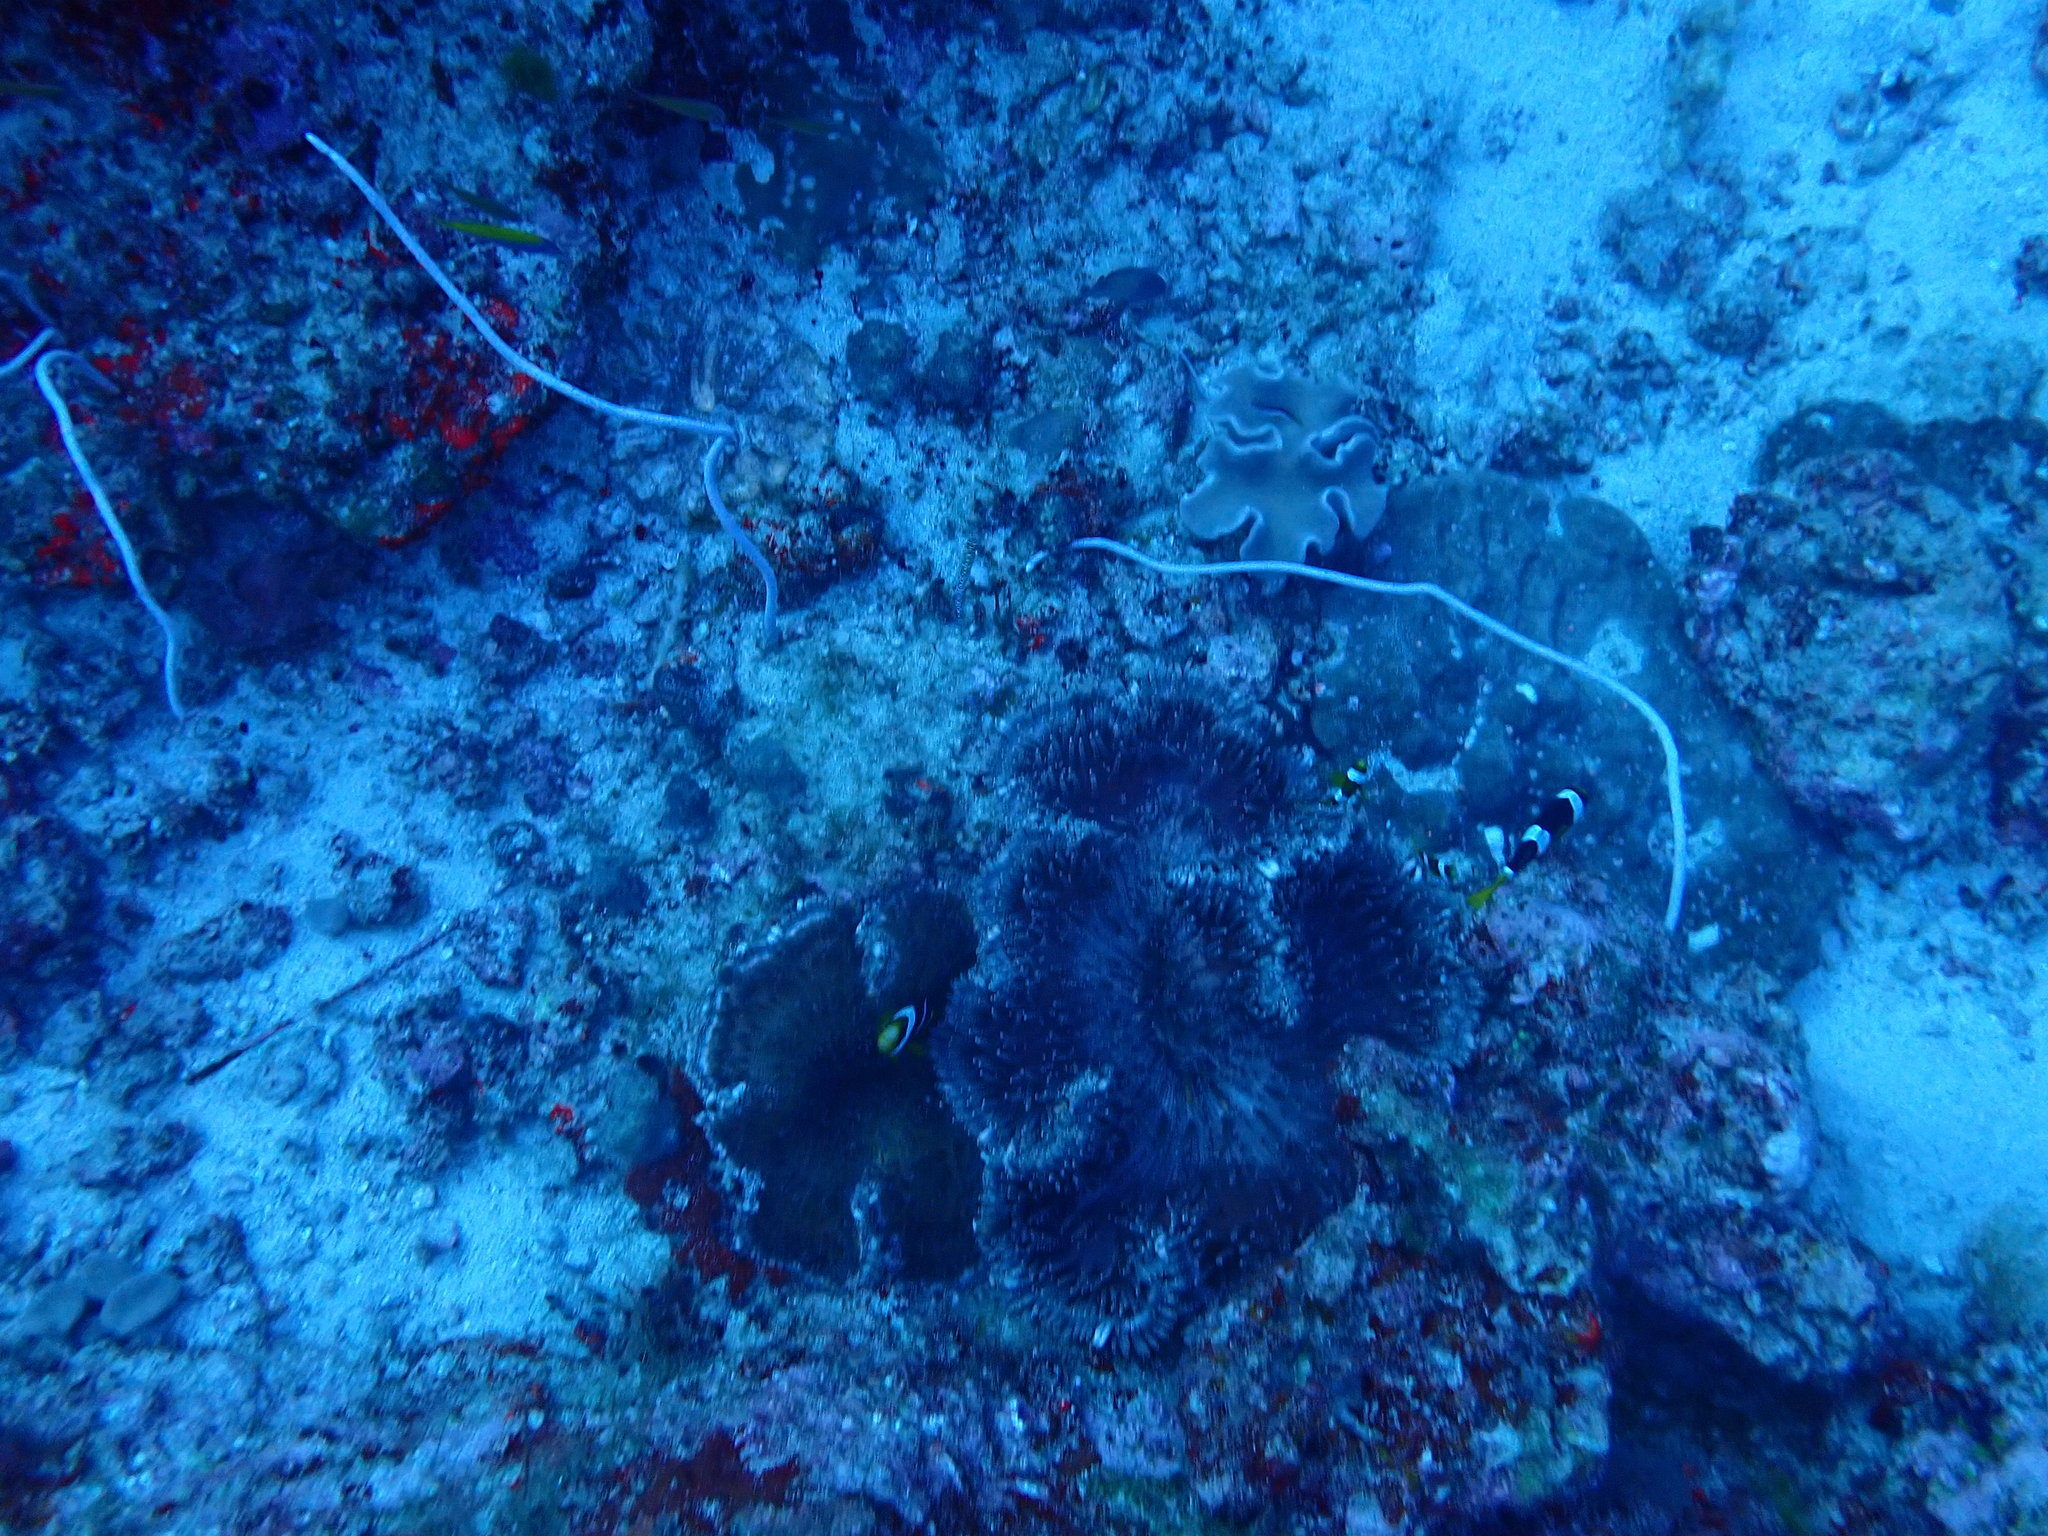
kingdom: Animalia
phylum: Cnidaria
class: Anthozoa
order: Scleralcyonacea
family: Ellisellidae
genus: Junceella
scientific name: Junceella fragilis
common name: Fragile sea whip
